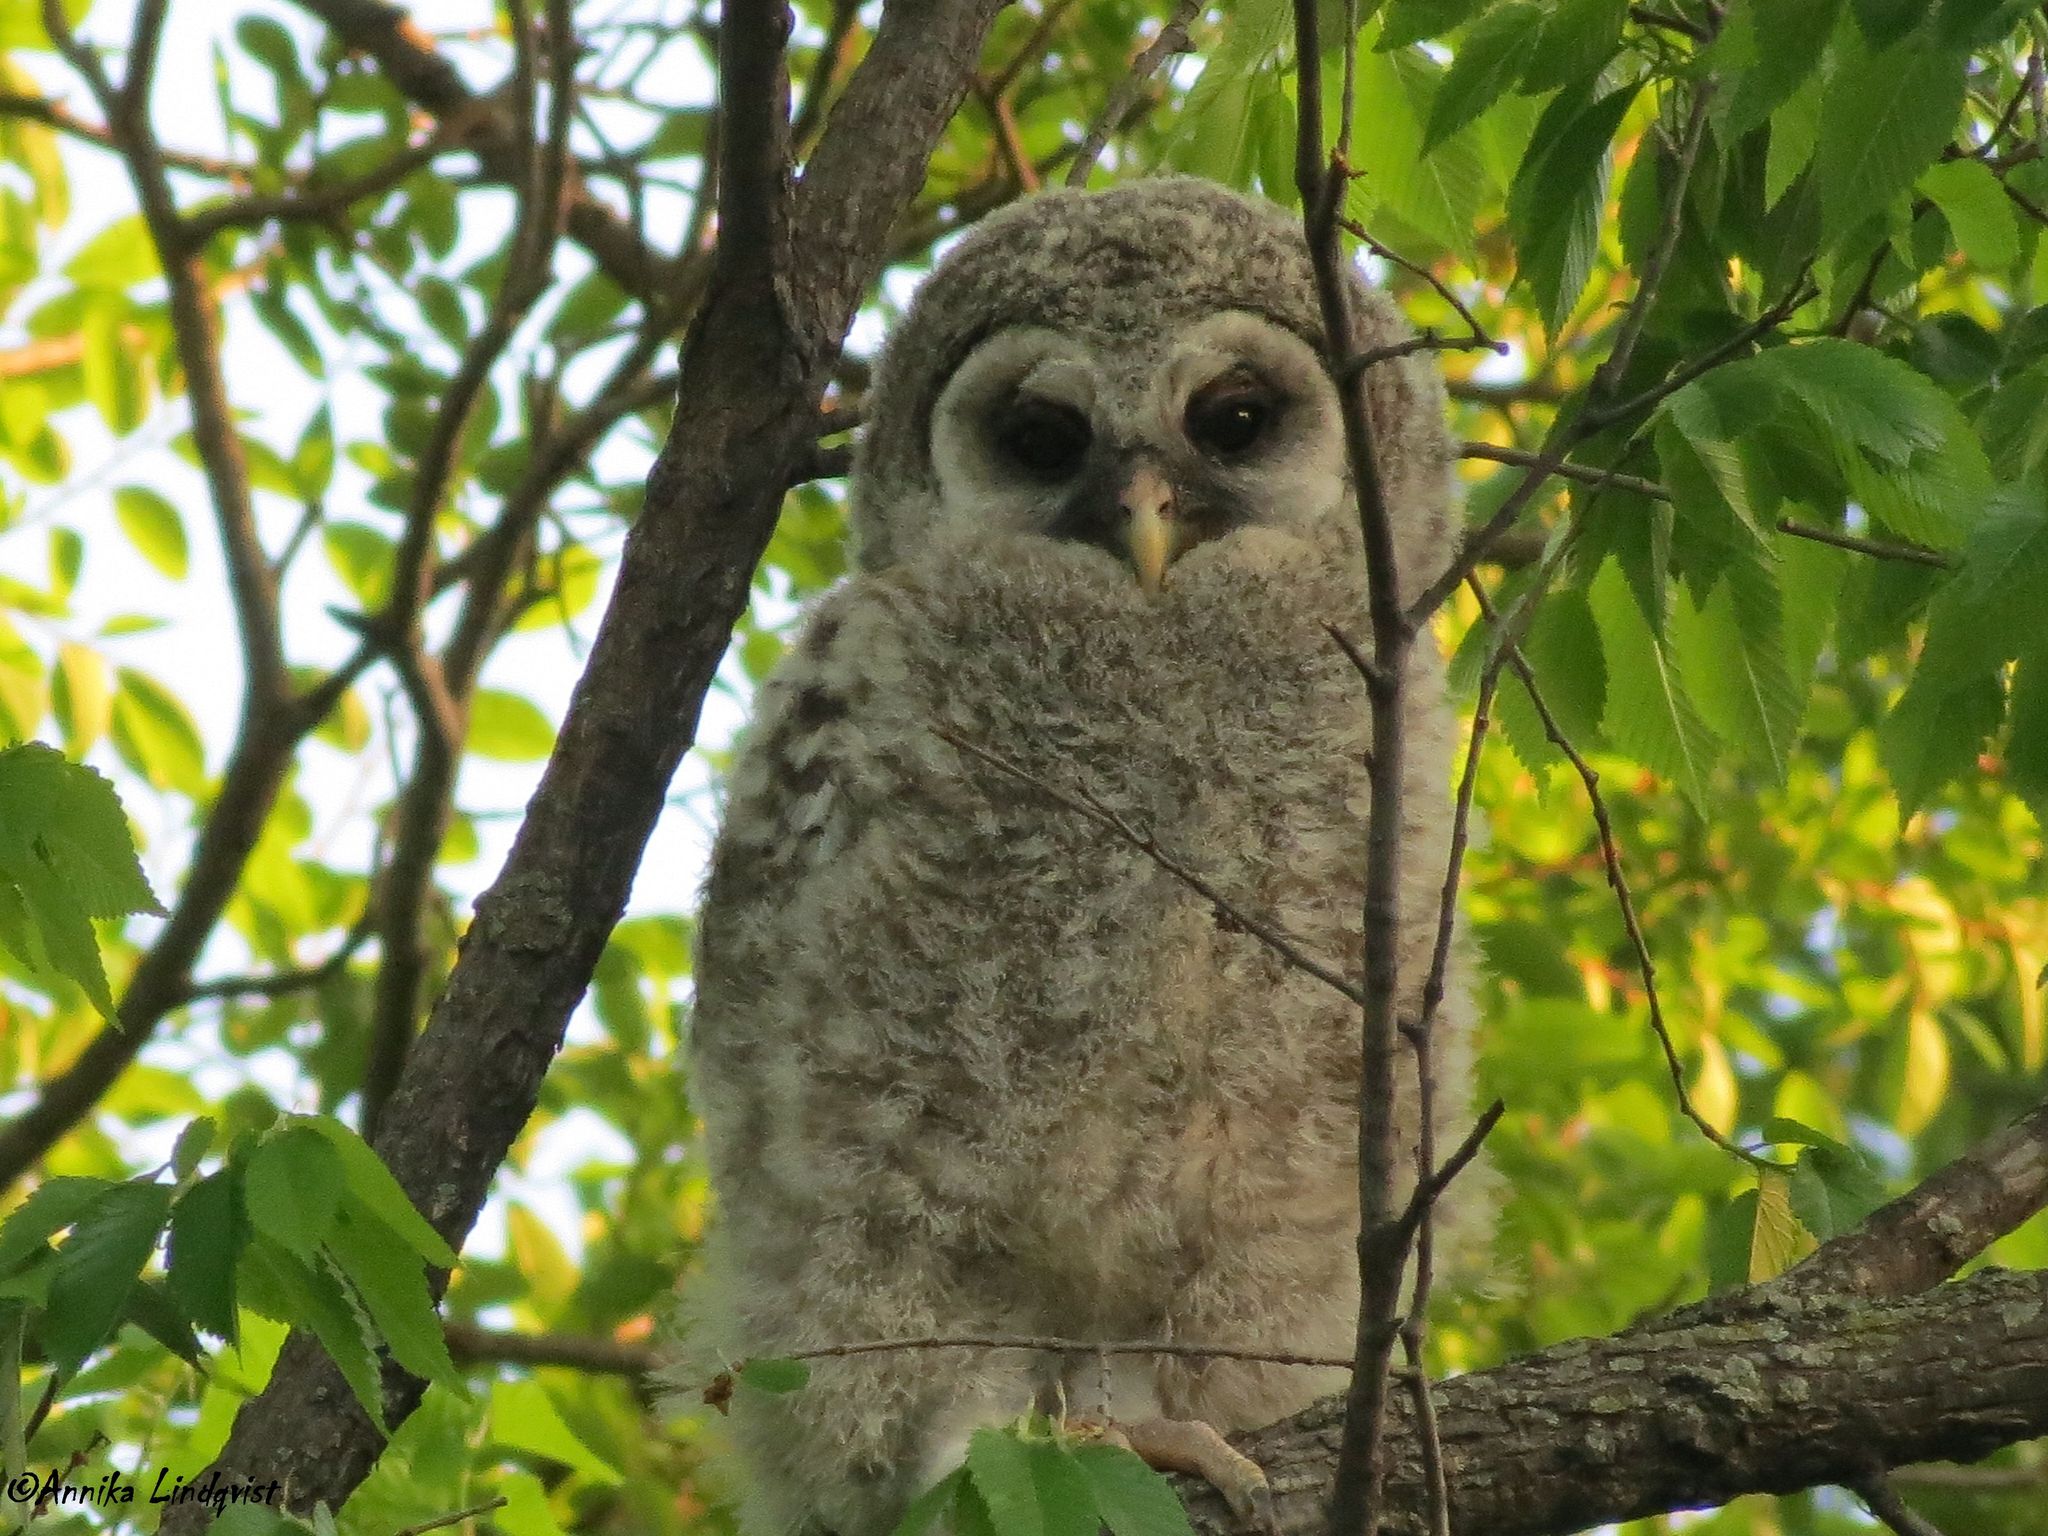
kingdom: Animalia
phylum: Chordata
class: Aves
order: Strigiformes
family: Strigidae
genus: Strix
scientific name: Strix varia
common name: Barred owl
